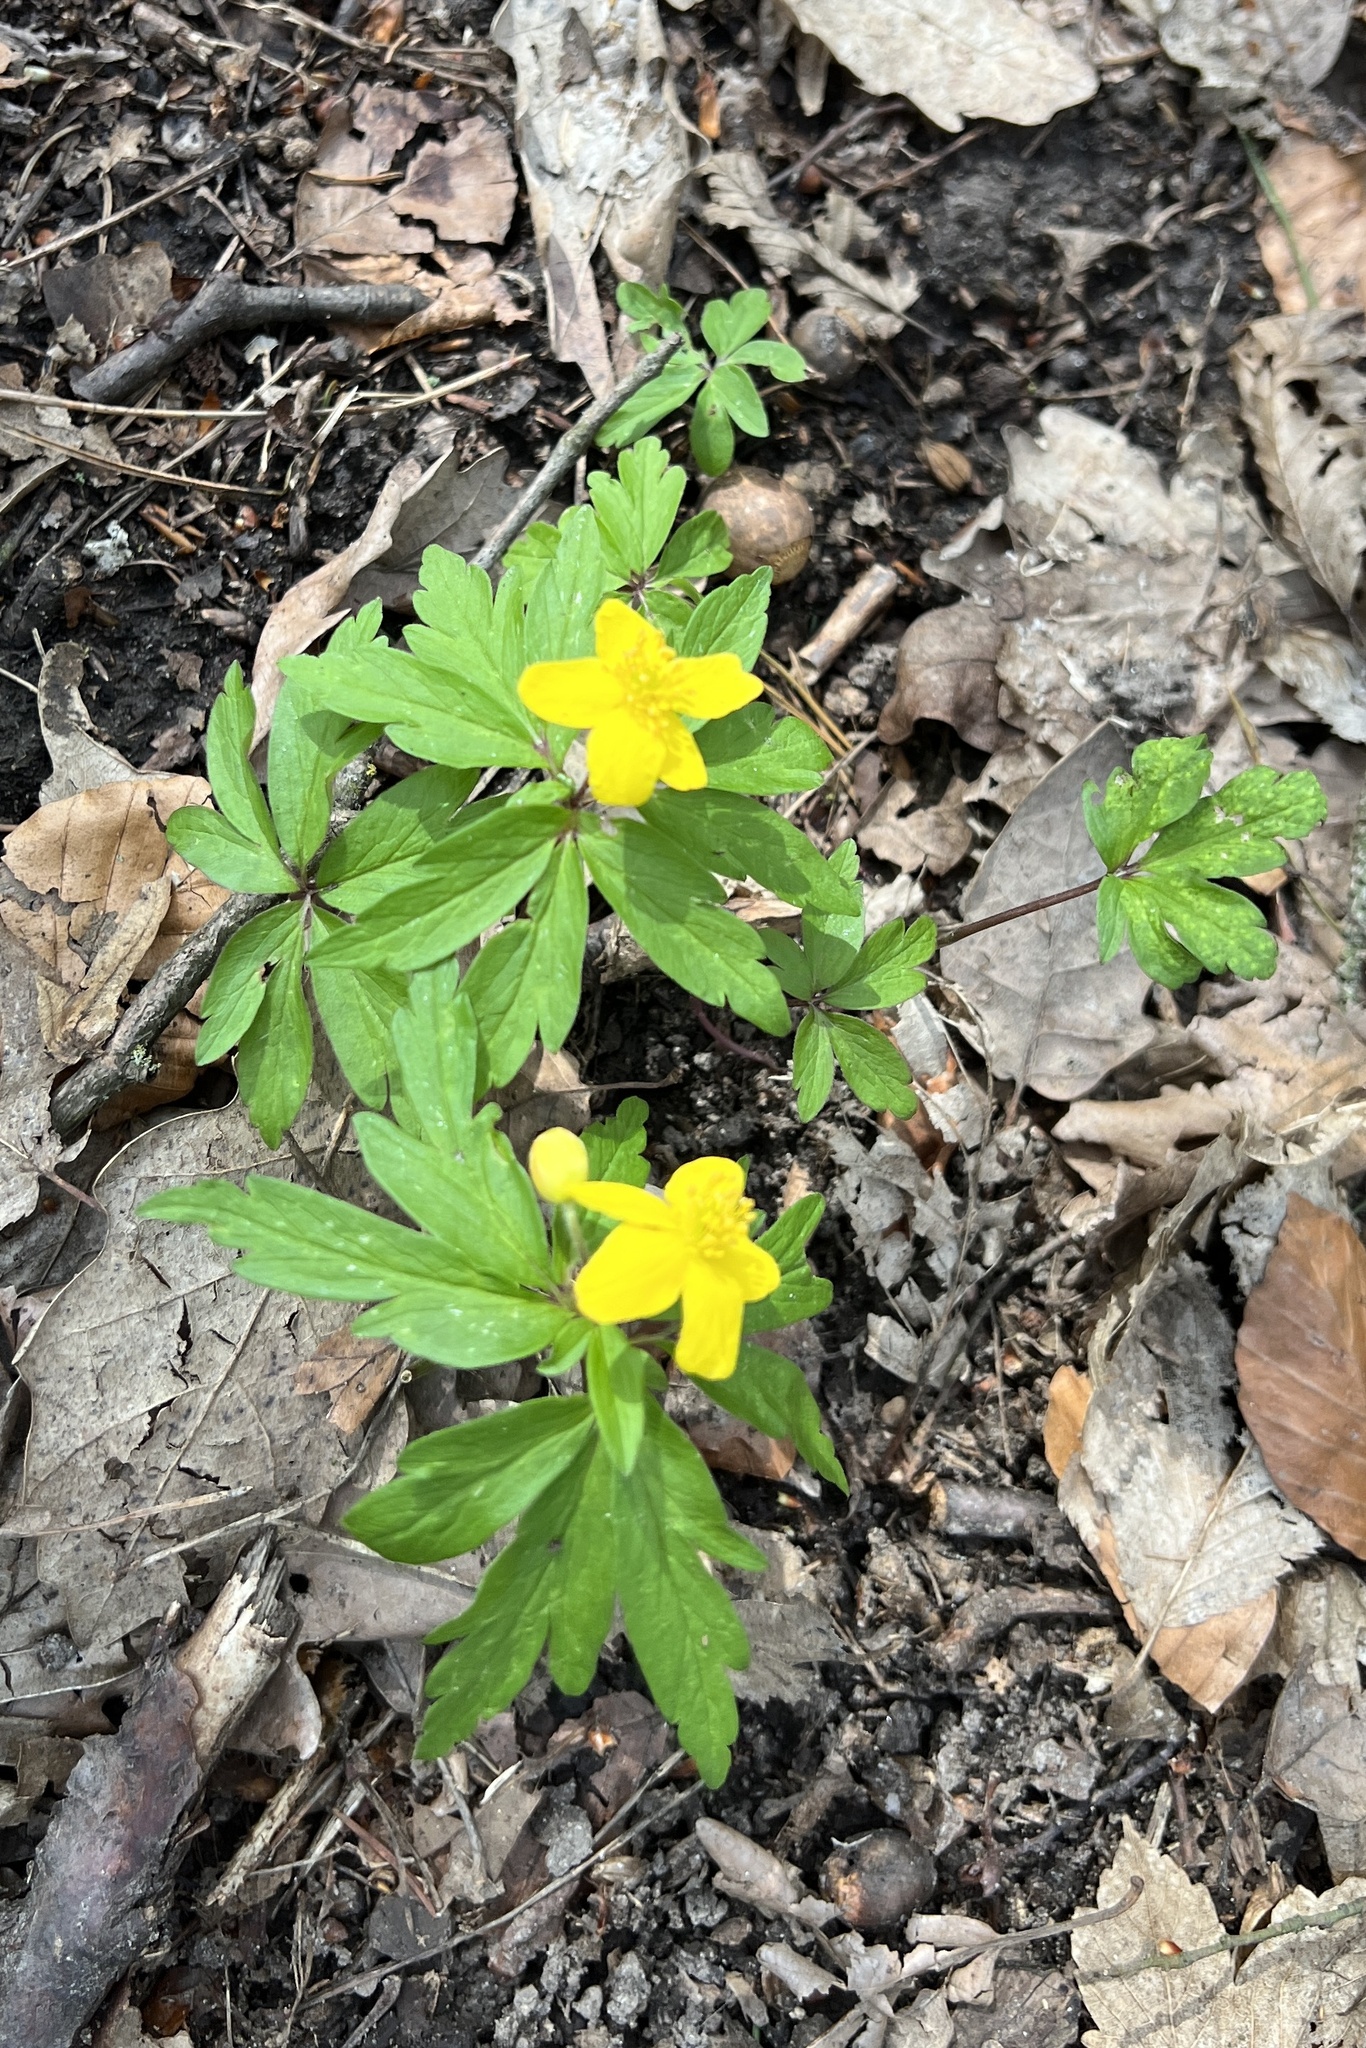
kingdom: Plantae
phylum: Tracheophyta
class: Magnoliopsida
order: Ranunculales
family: Ranunculaceae
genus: Anemone
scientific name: Anemone ranunculoides
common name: Yellow anemone
